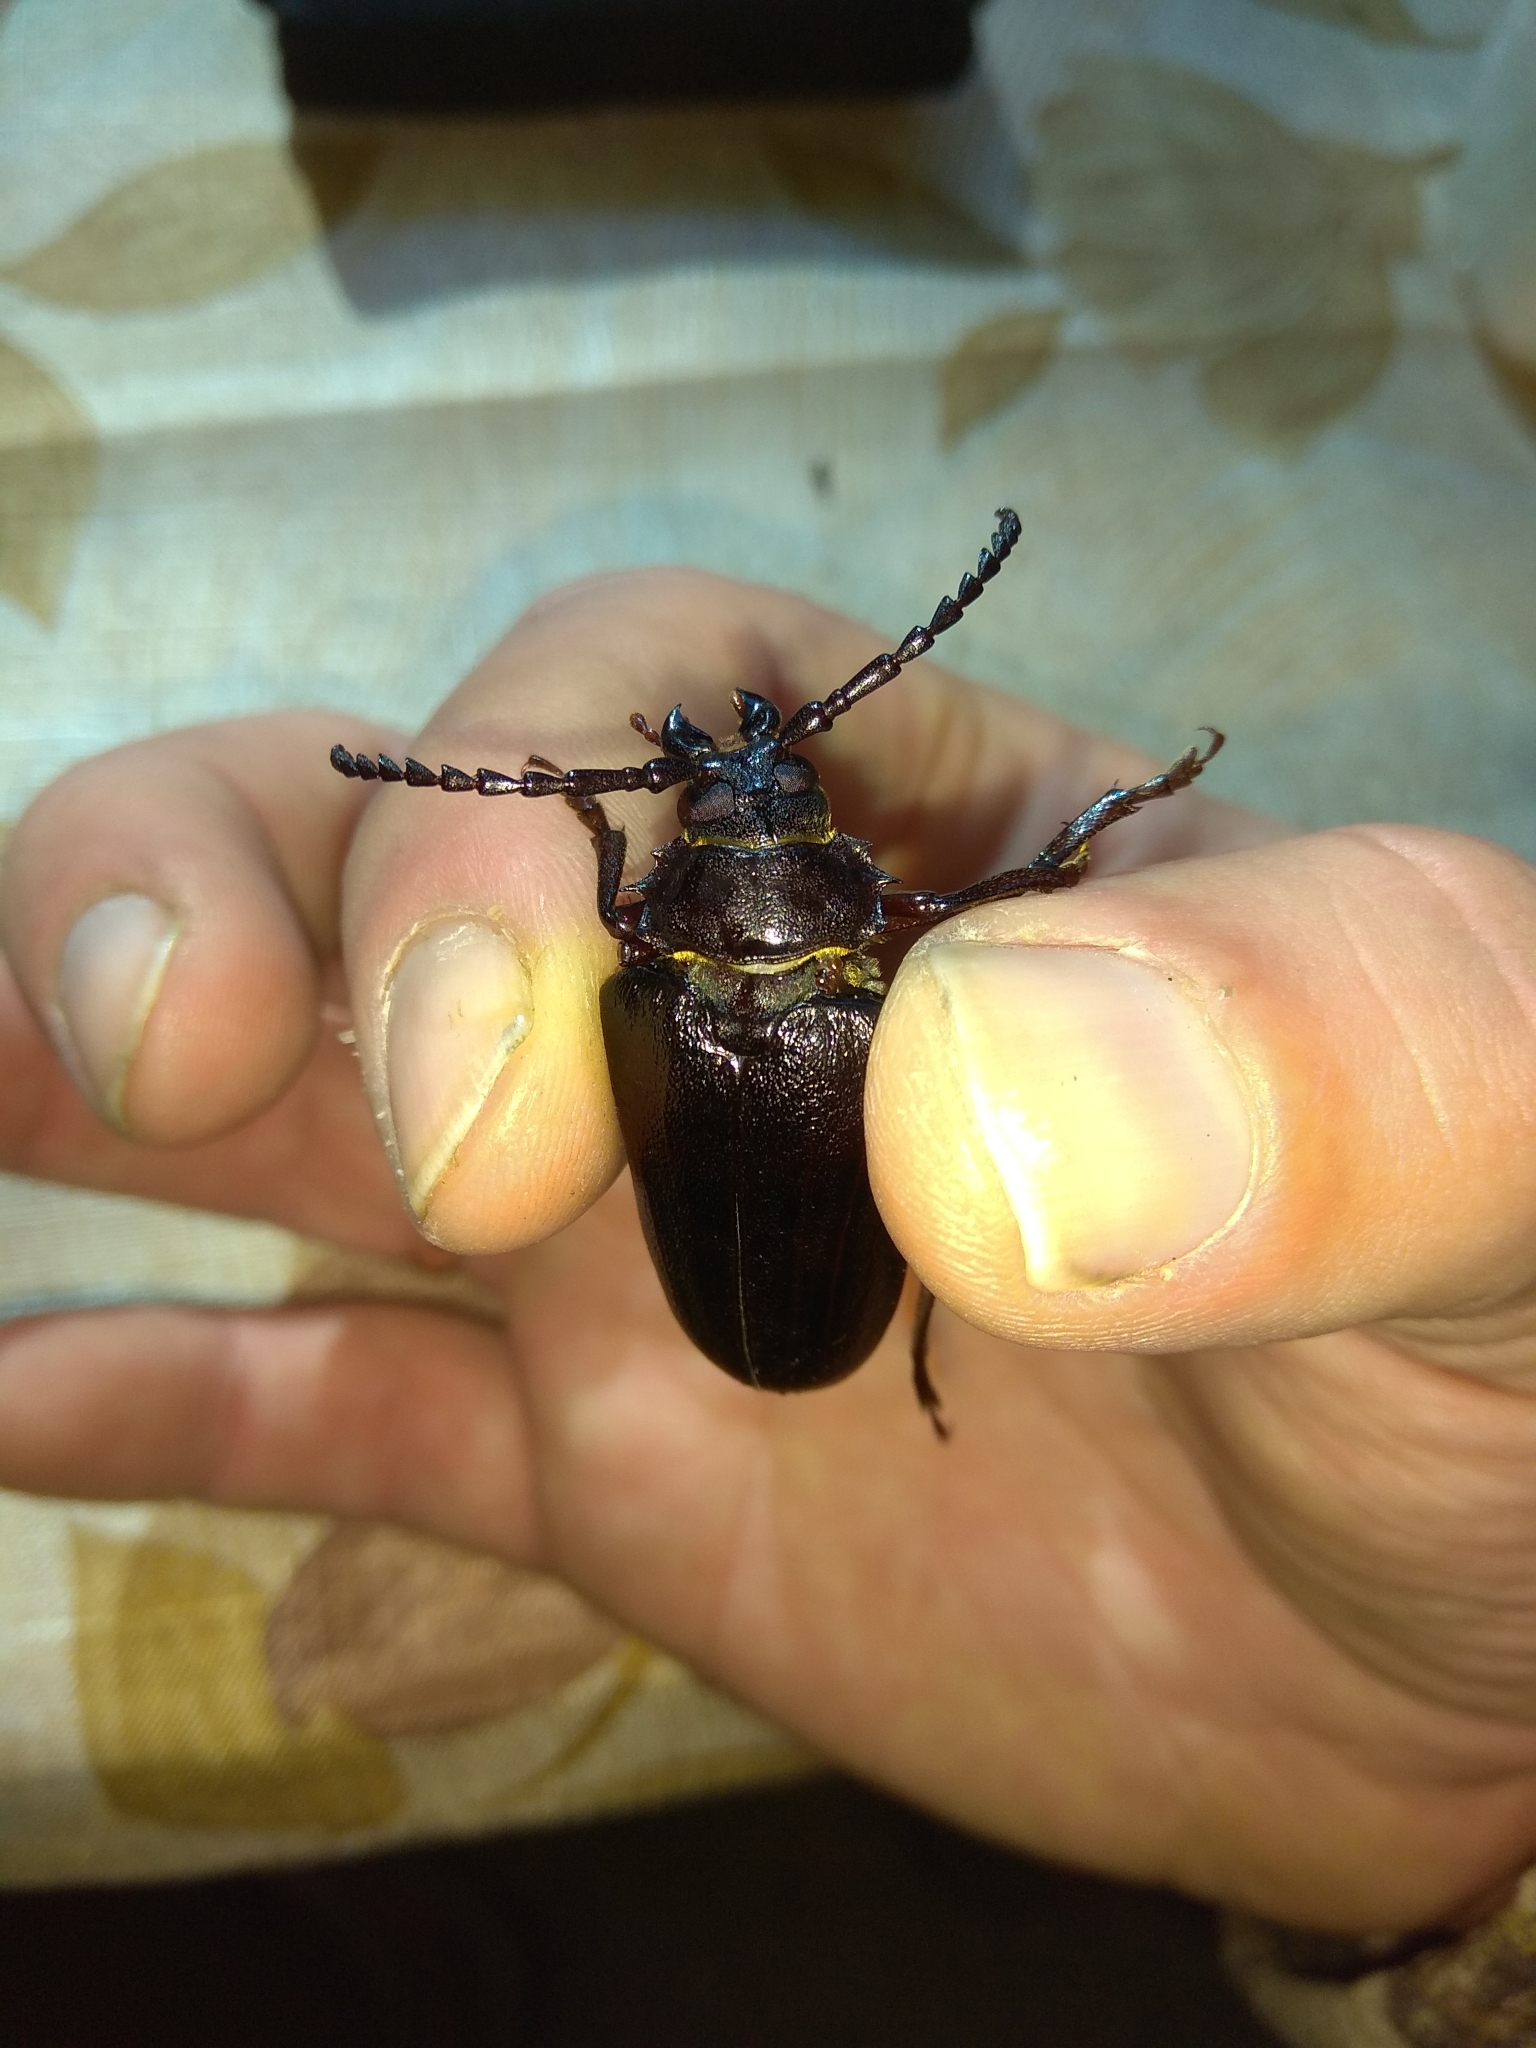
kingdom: Animalia
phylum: Arthropoda
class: Insecta
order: Coleoptera
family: Cerambycidae
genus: Prionus
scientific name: Prionus coriarius
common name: Tanner beetle
